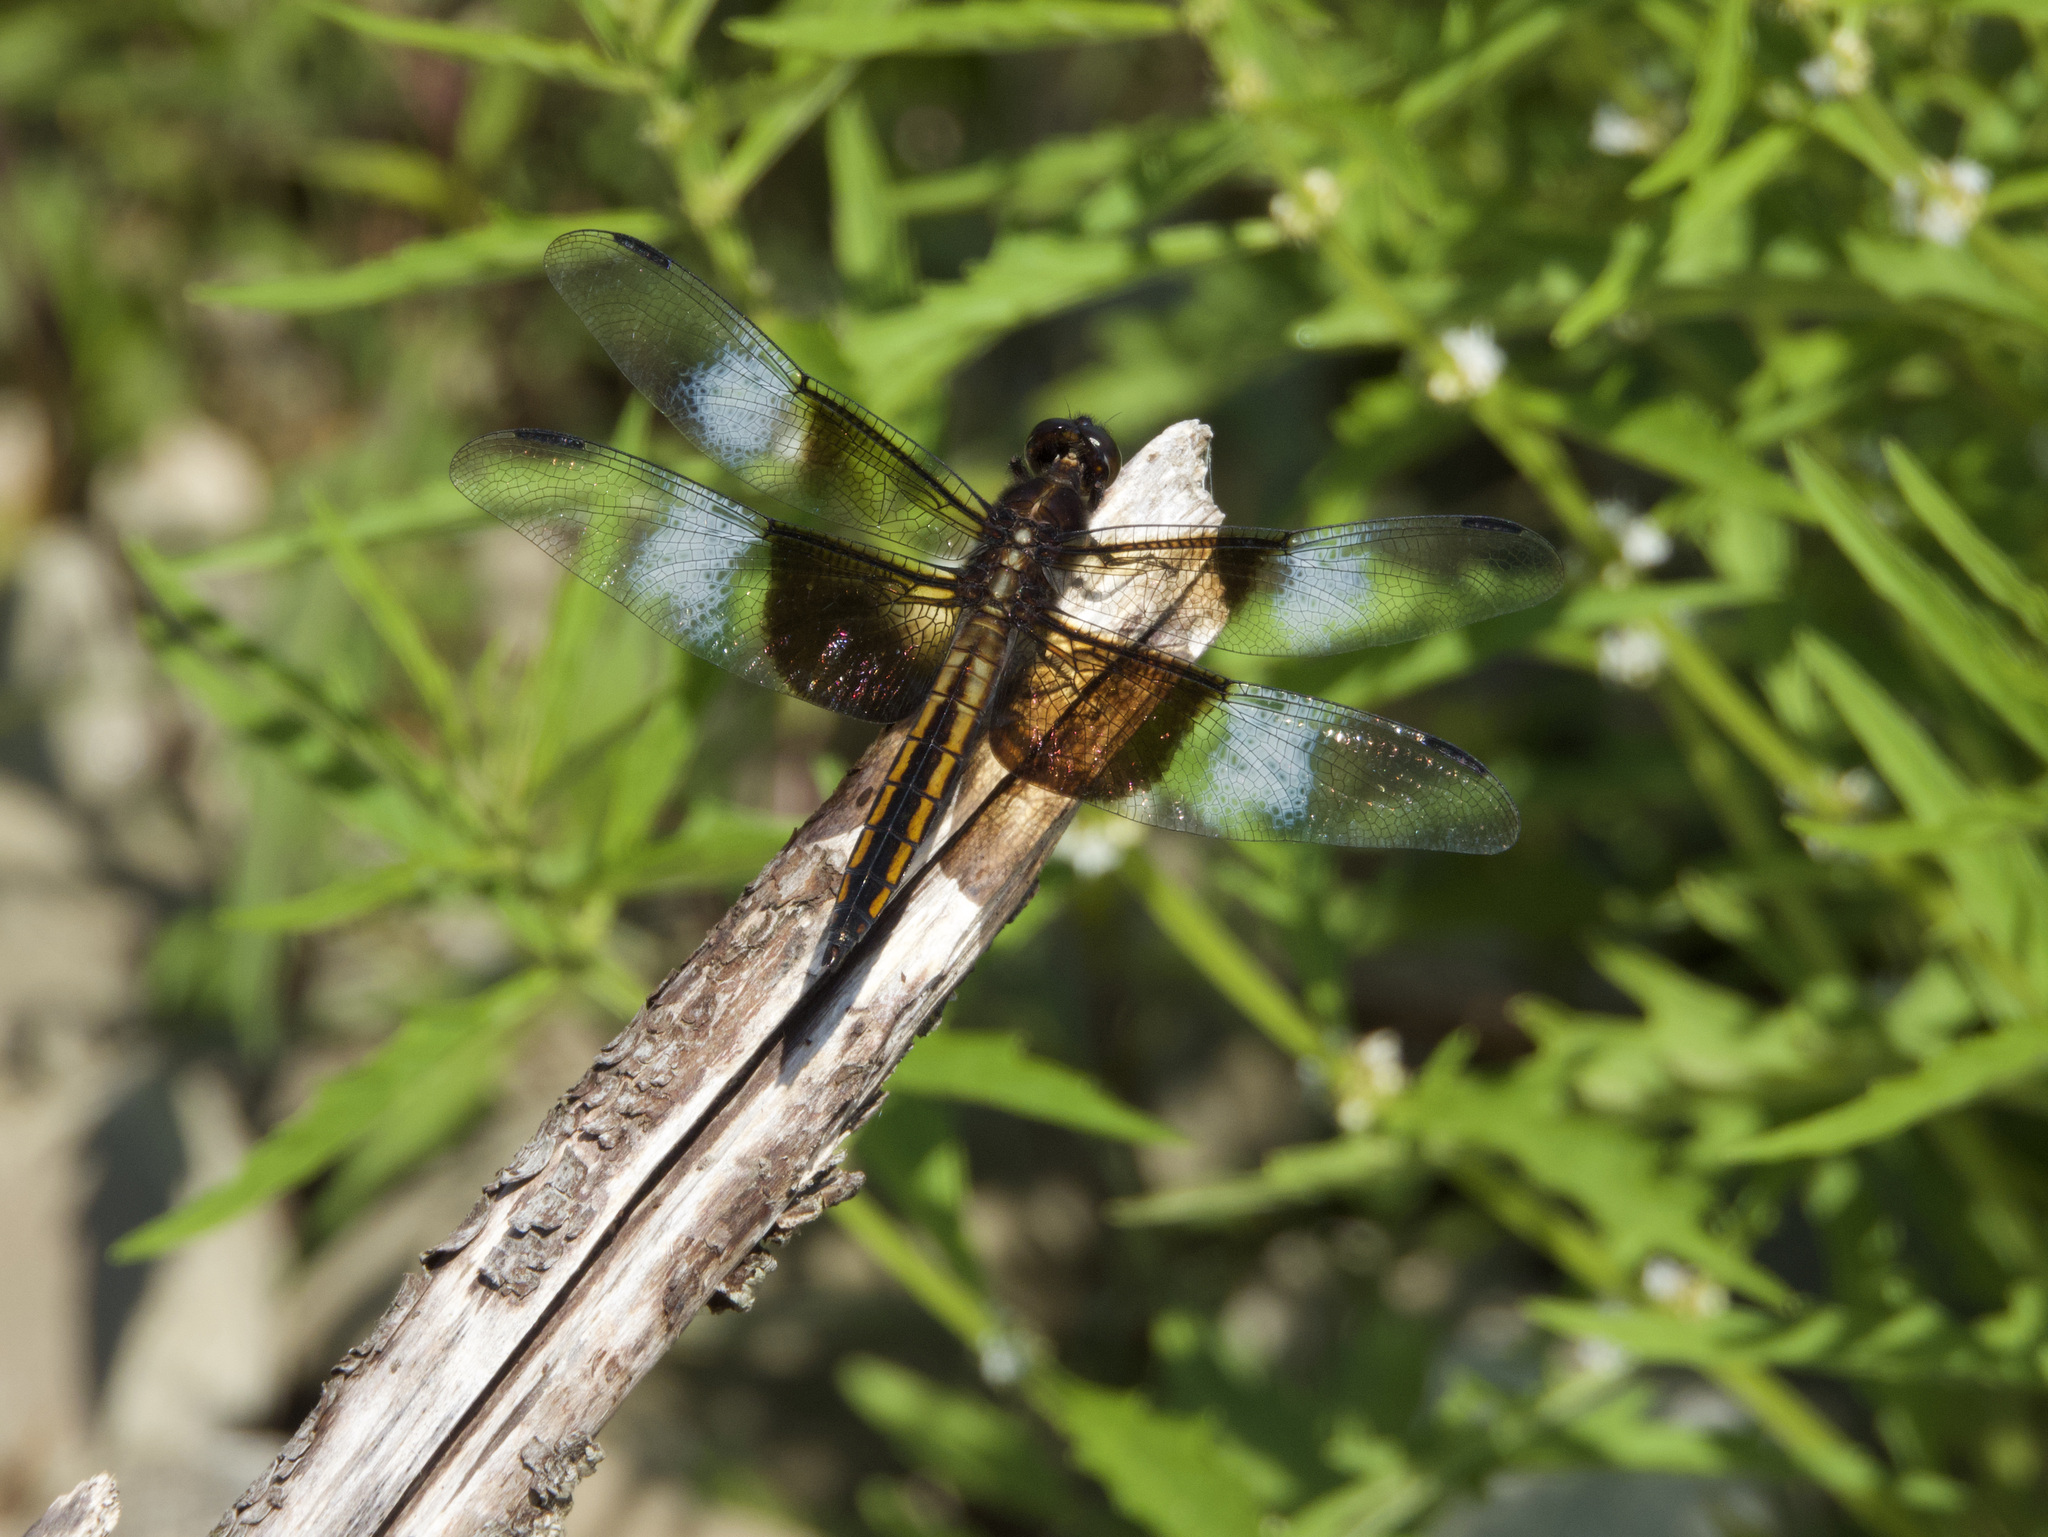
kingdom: Animalia
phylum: Arthropoda
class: Insecta
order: Odonata
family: Libellulidae
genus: Libellula
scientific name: Libellula luctuosa
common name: Widow skimmer
